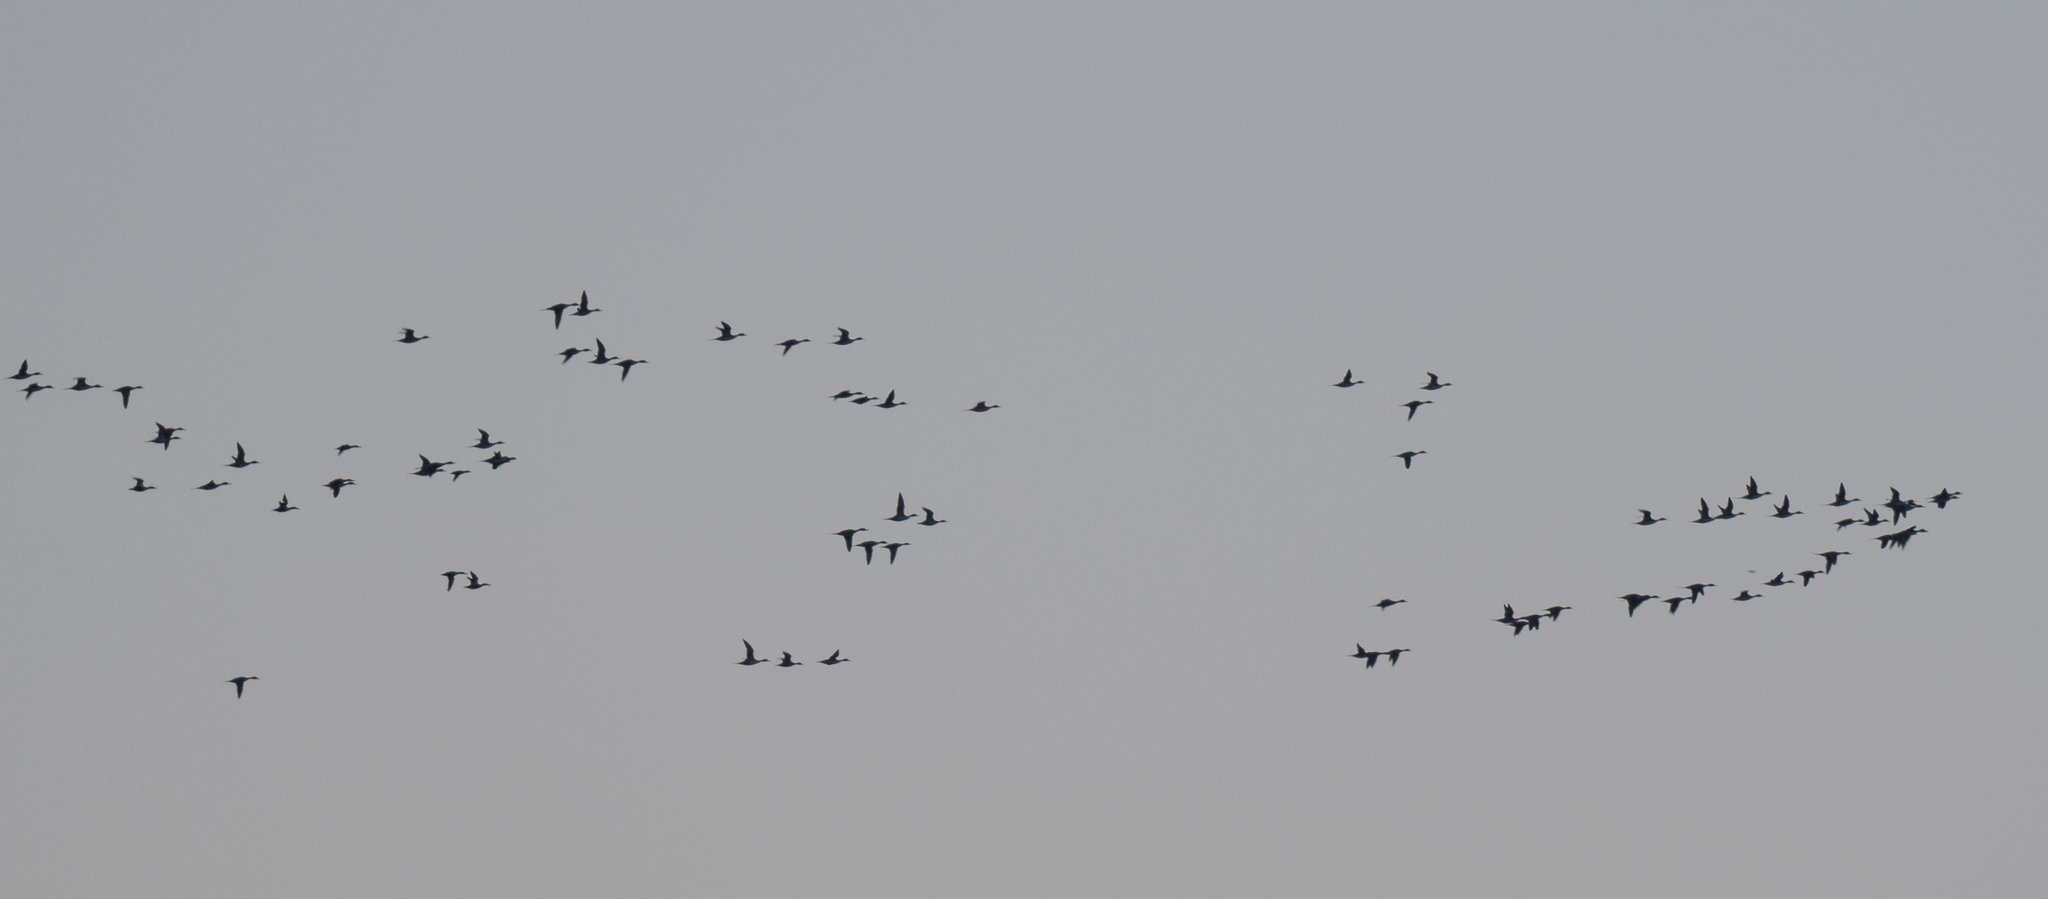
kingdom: Animalia
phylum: Chordata
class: Aves
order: Anseriformes
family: Anatidae
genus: Anas
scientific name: Anas acuta
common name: Northern pintail
